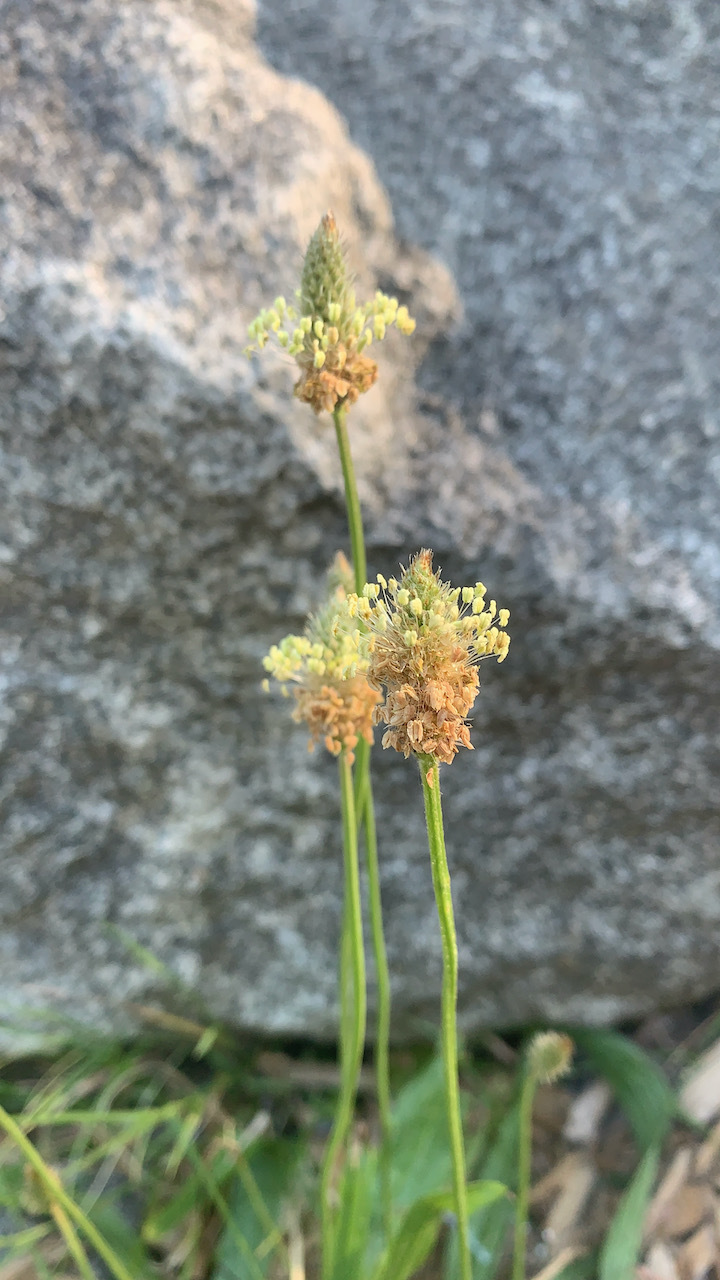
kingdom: Plantae
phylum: Tracheophyta
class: Magnoliopsida
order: Lamiales
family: Plantaginaceae
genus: Plantago
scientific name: Plantago lanceolata
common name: Ribwort plantain
